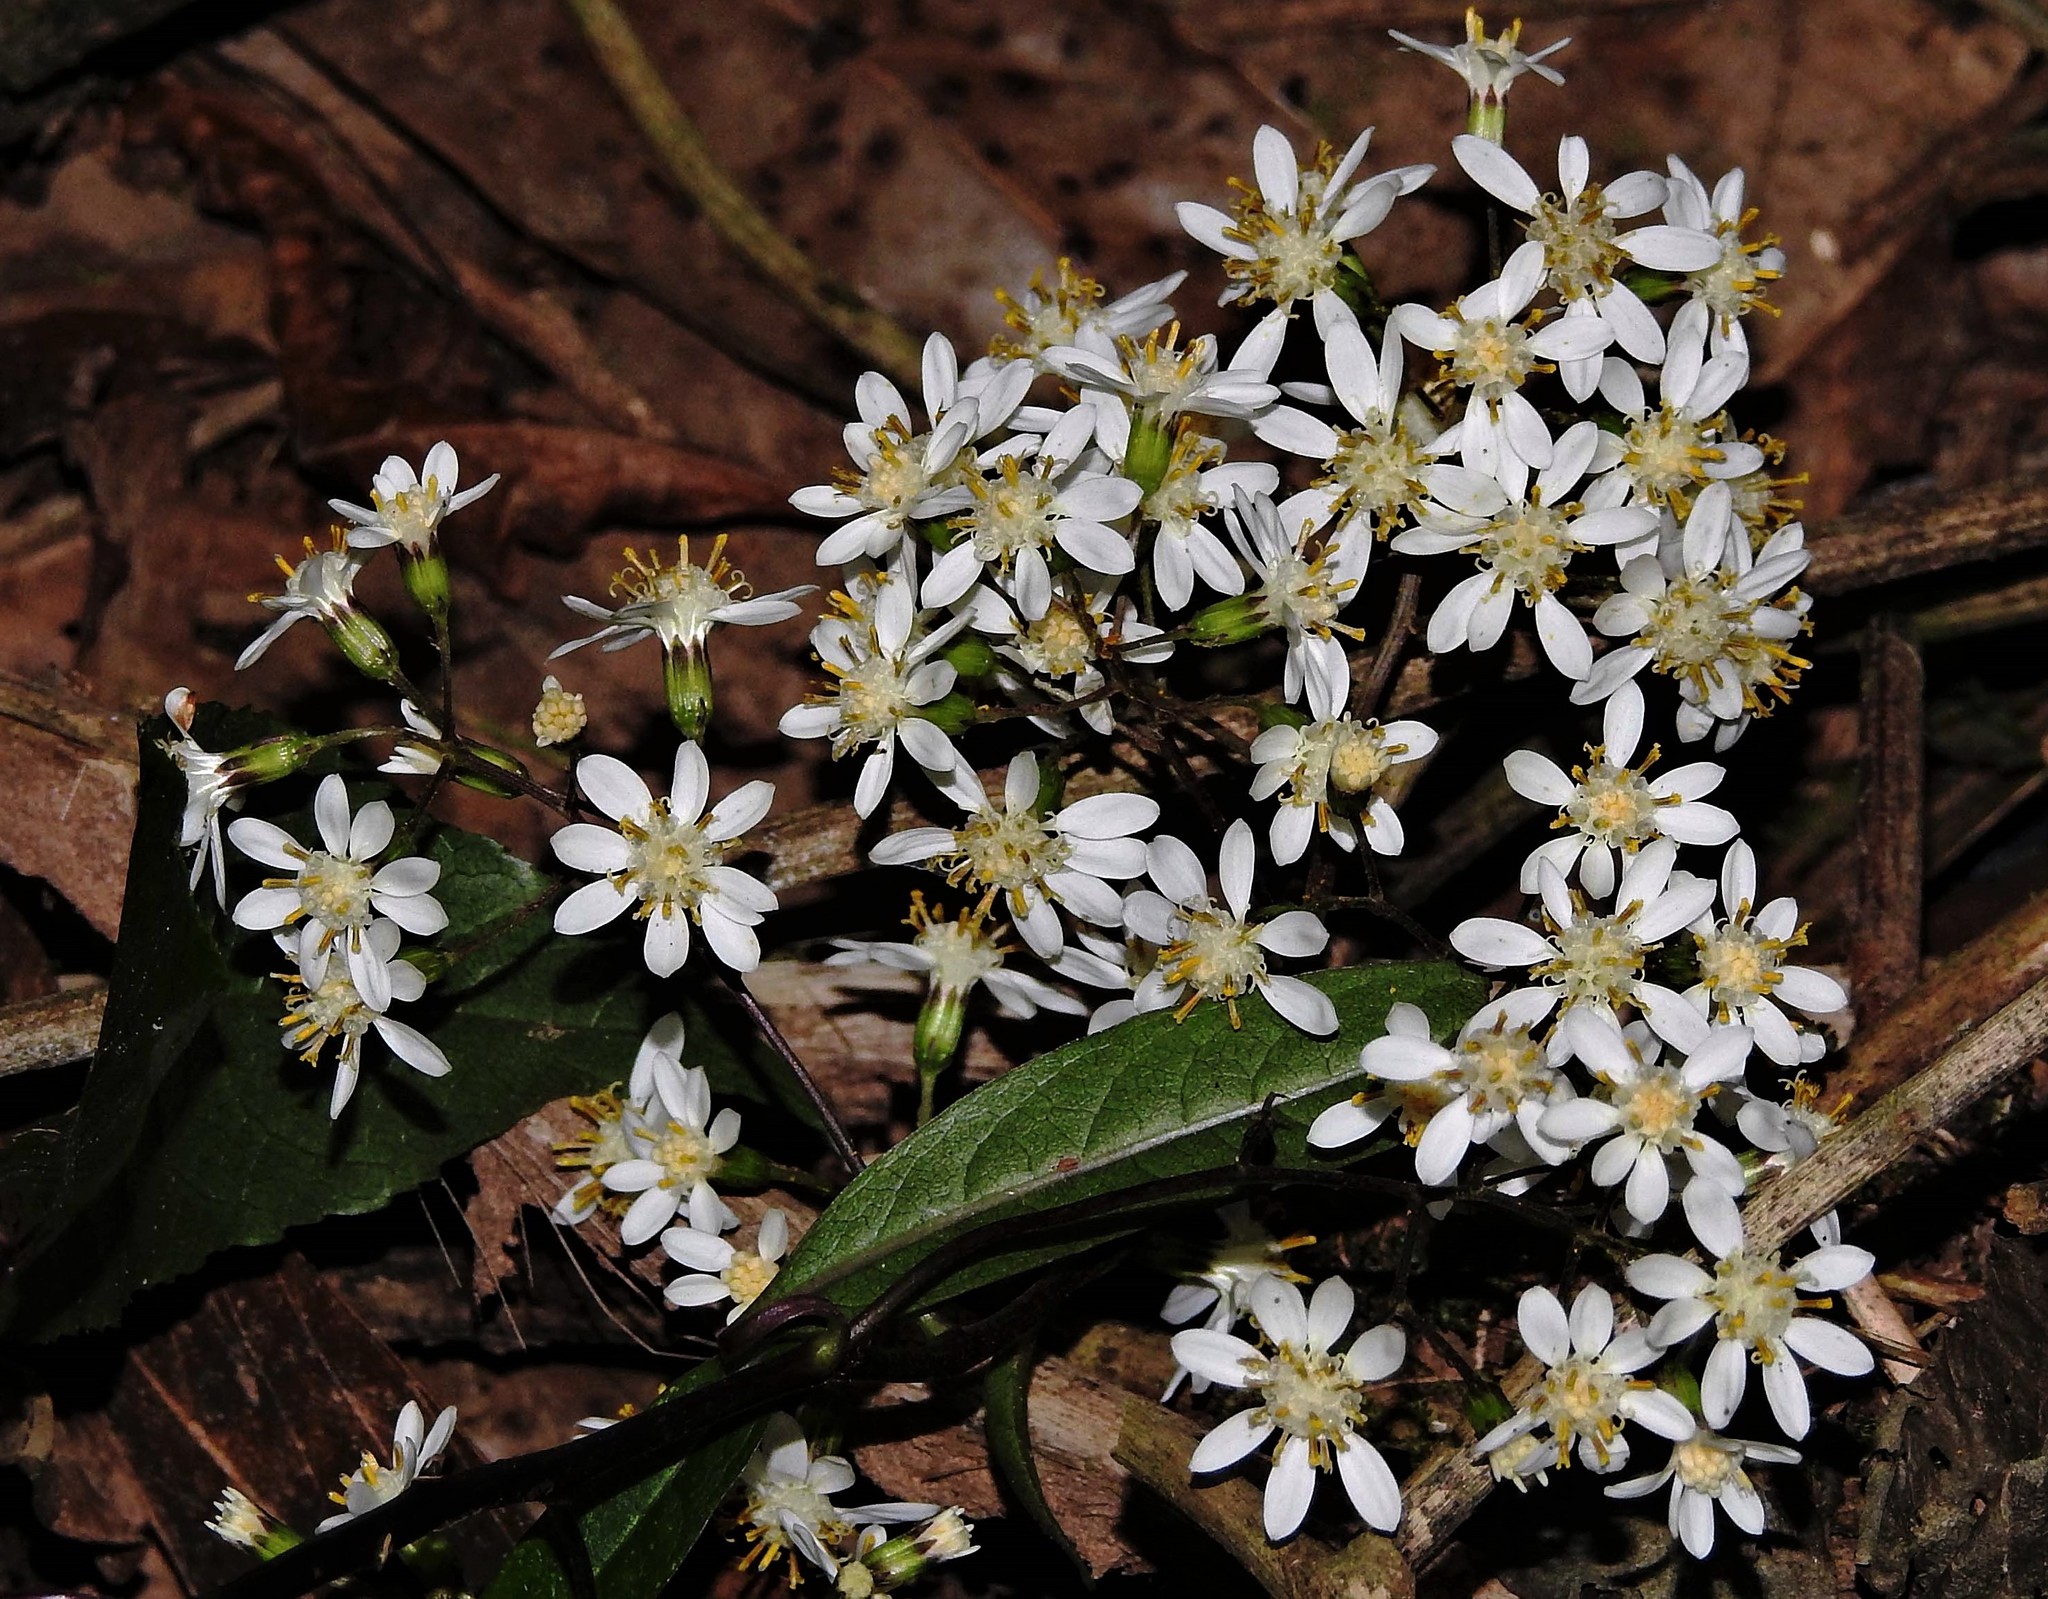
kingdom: Plantae
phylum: Tracheophyta
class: Magnoliopsida
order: Asterales
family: Asteraceae
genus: Dendrophorbium
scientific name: Dendrophorbium peregrinum
